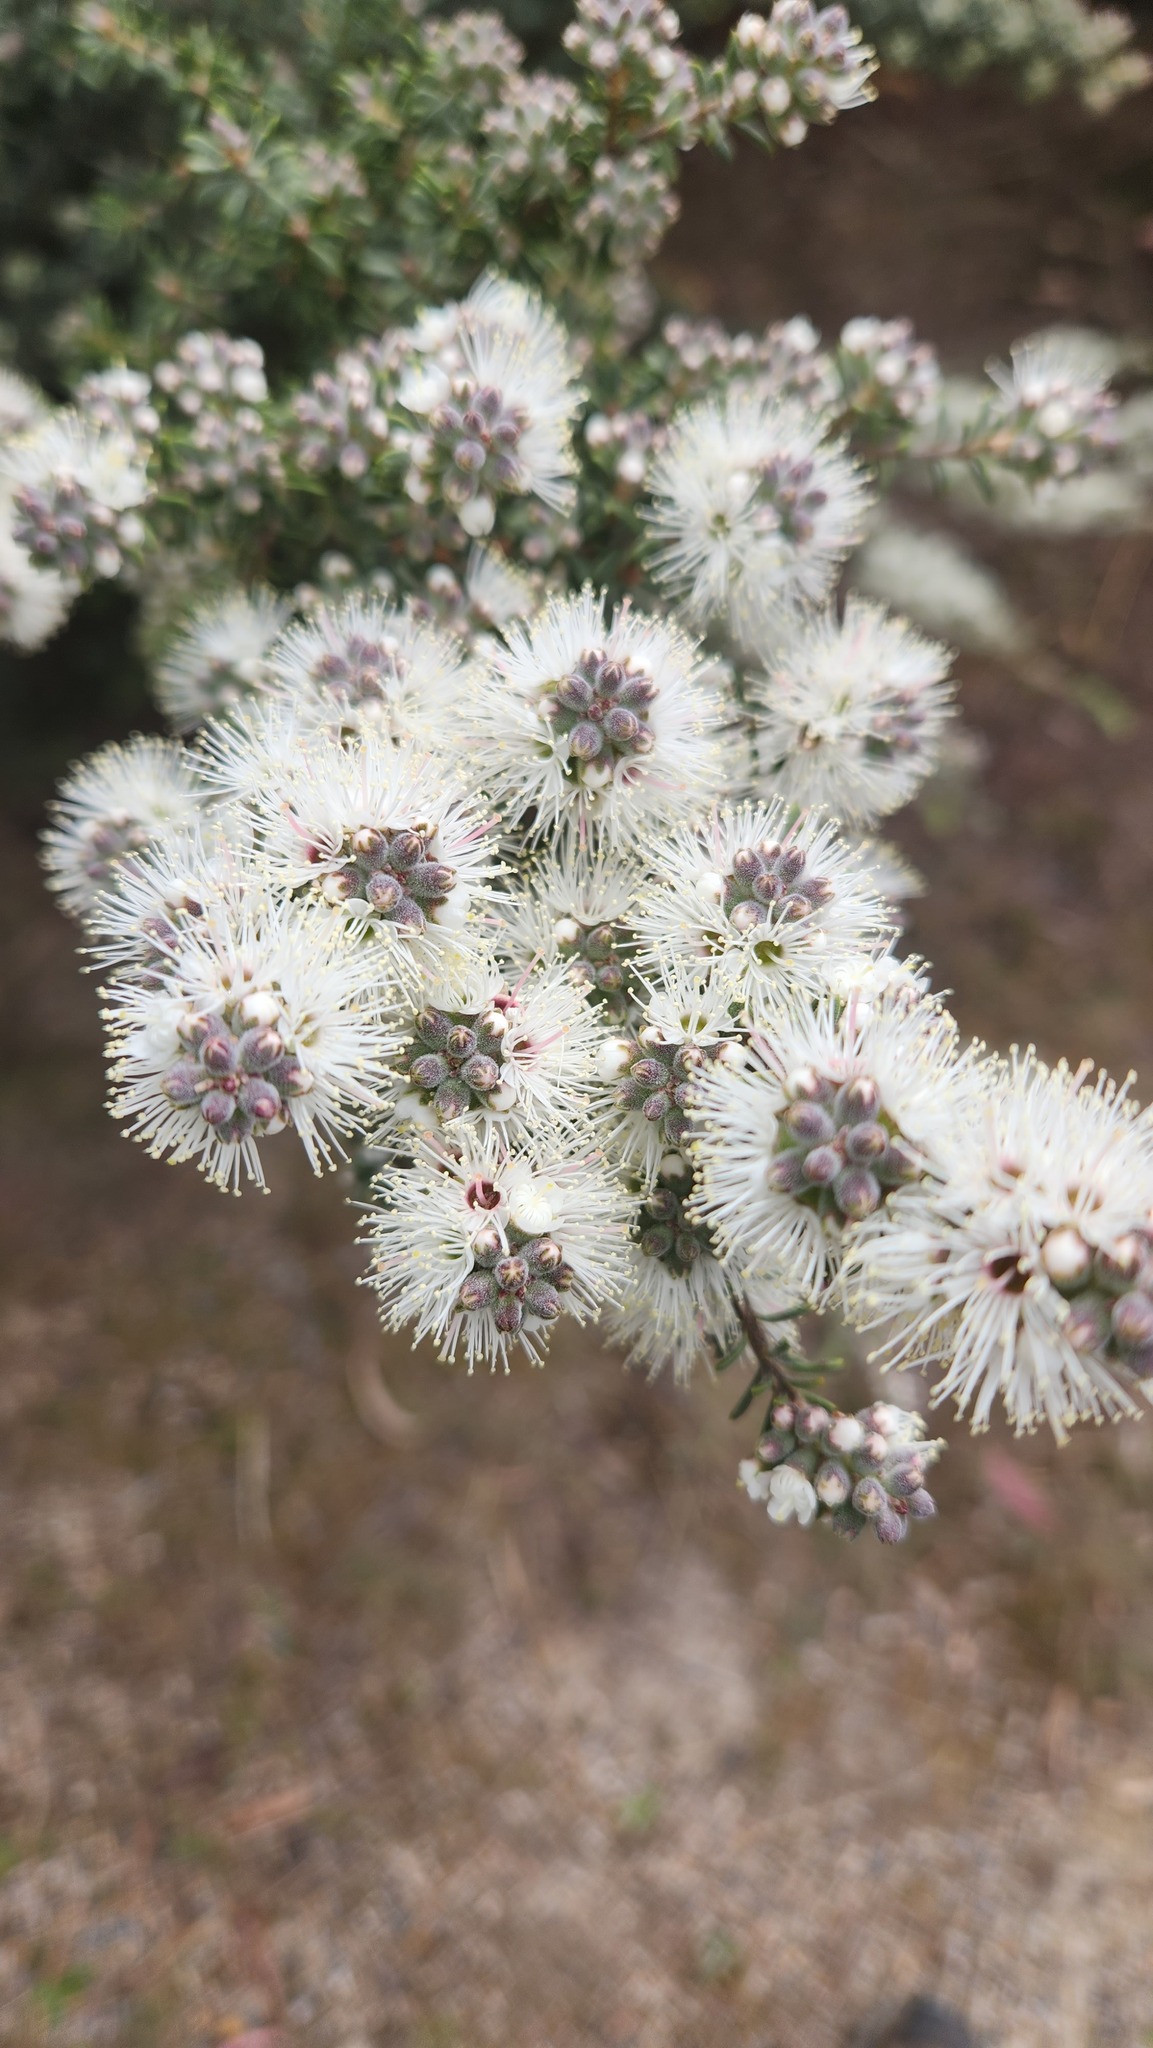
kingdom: Plantae
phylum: Tracheophyta
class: Magnoliopsida
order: Myrtales
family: Myrtaceae
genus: Kunzea
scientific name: Kunzea ambigua
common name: Tickbush
